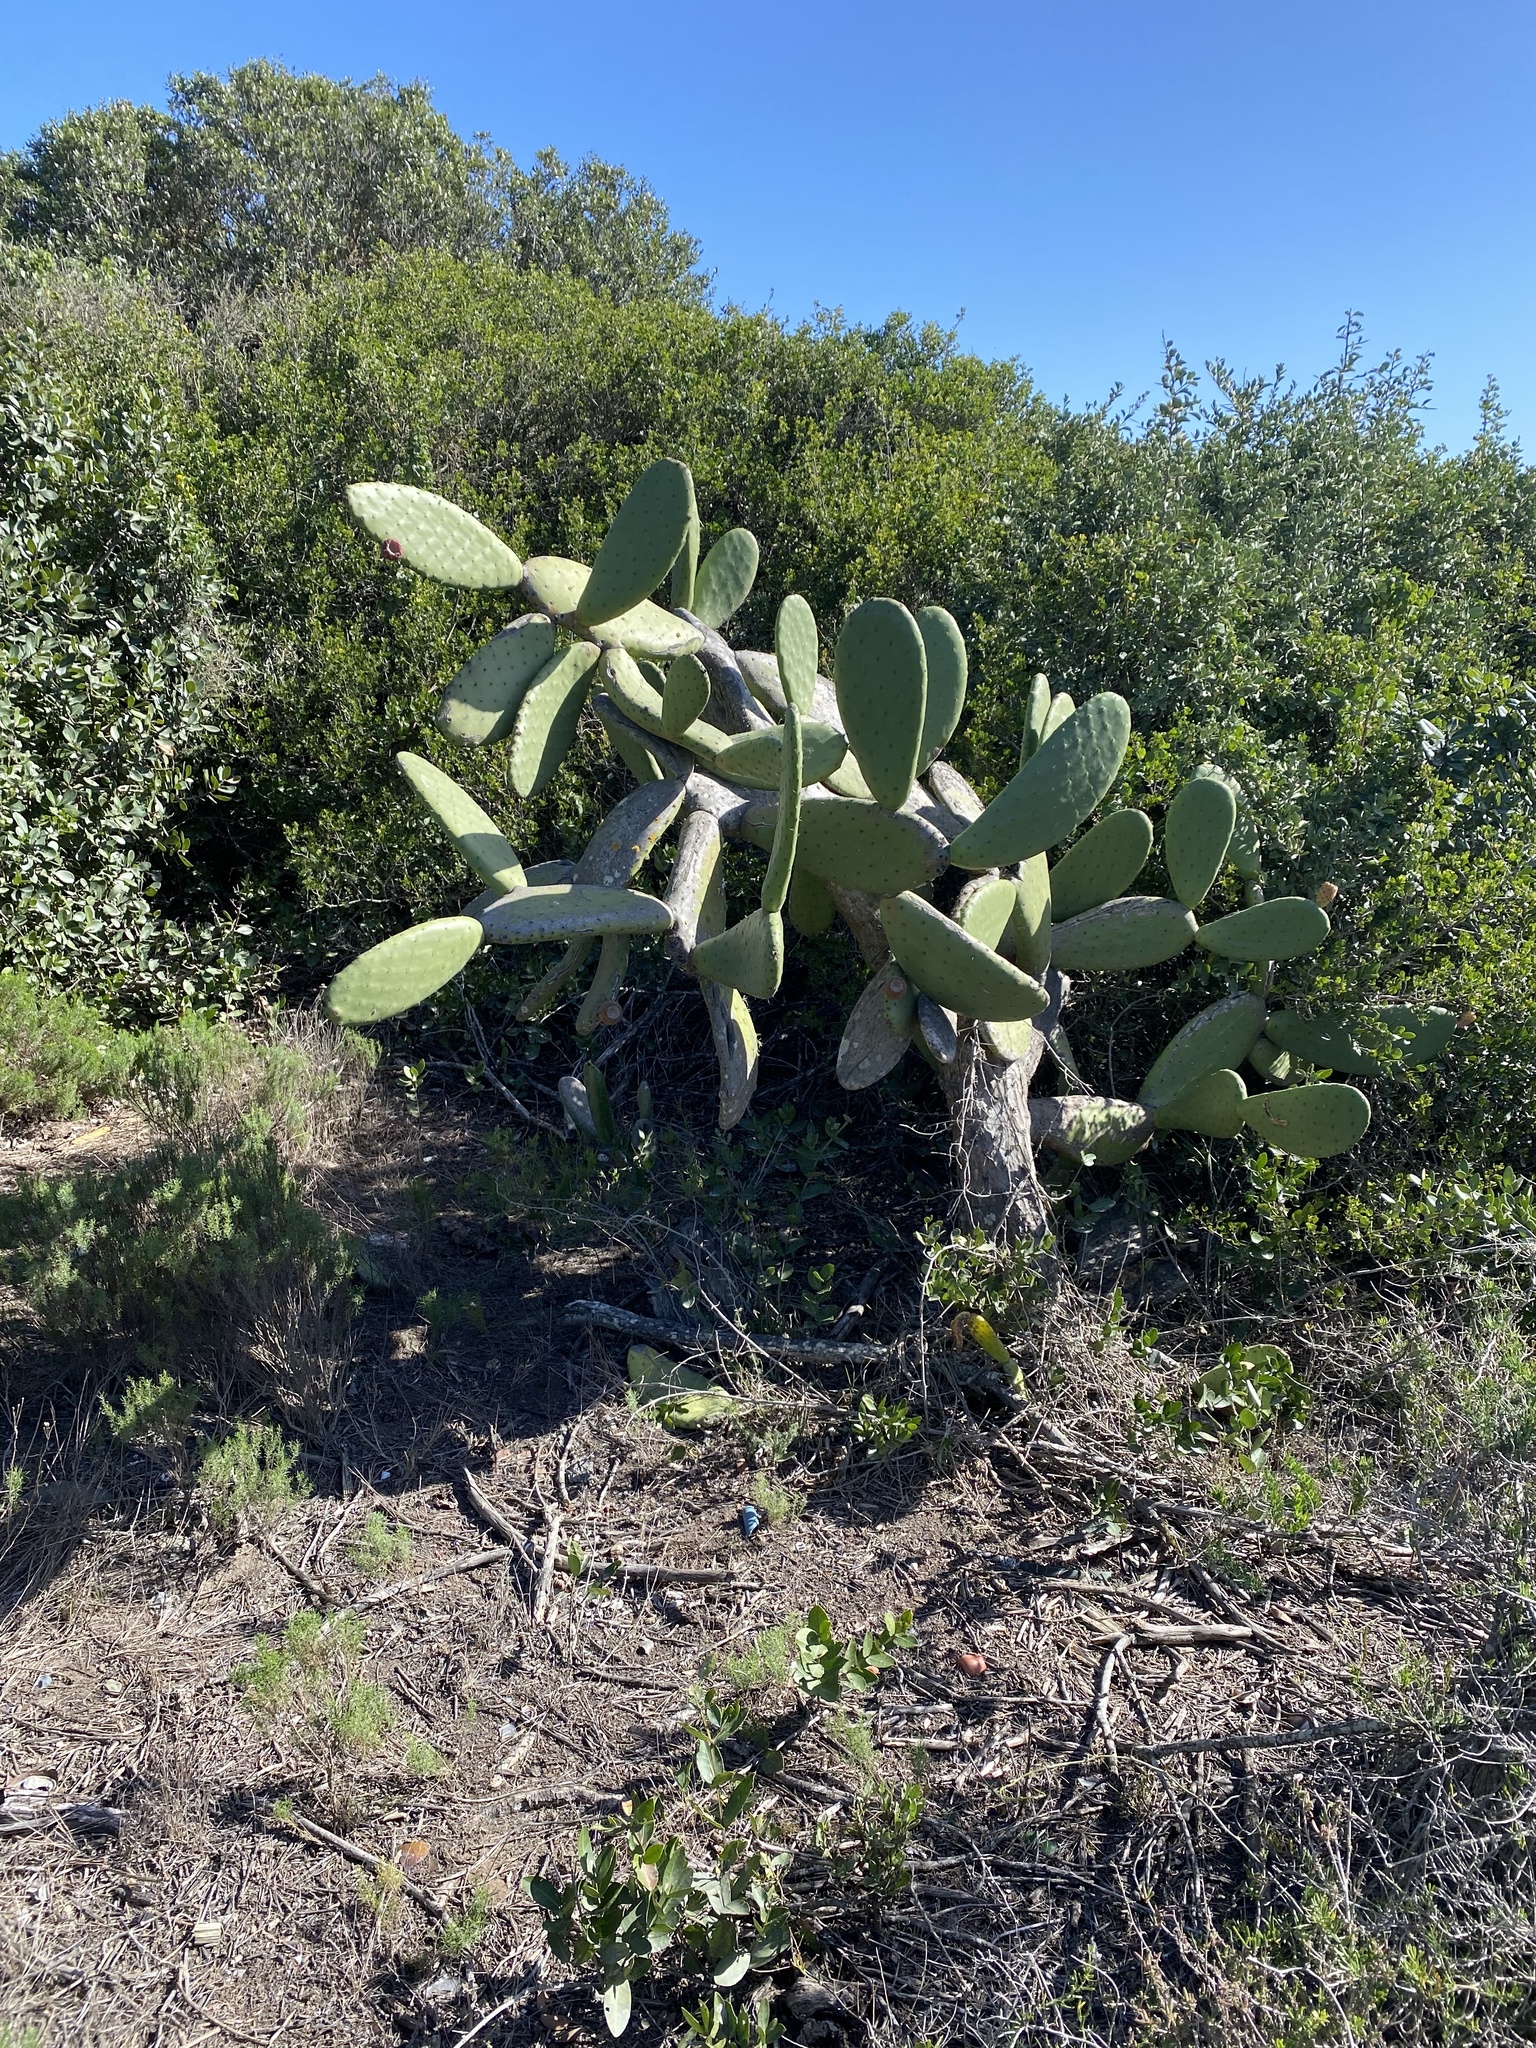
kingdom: Plantae
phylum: Tracheophyta
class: Magnoliopsida
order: Caryophyllales
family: Cactaceae
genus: Opuntia
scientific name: Opuntia ficus-indica
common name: Barbary fig
